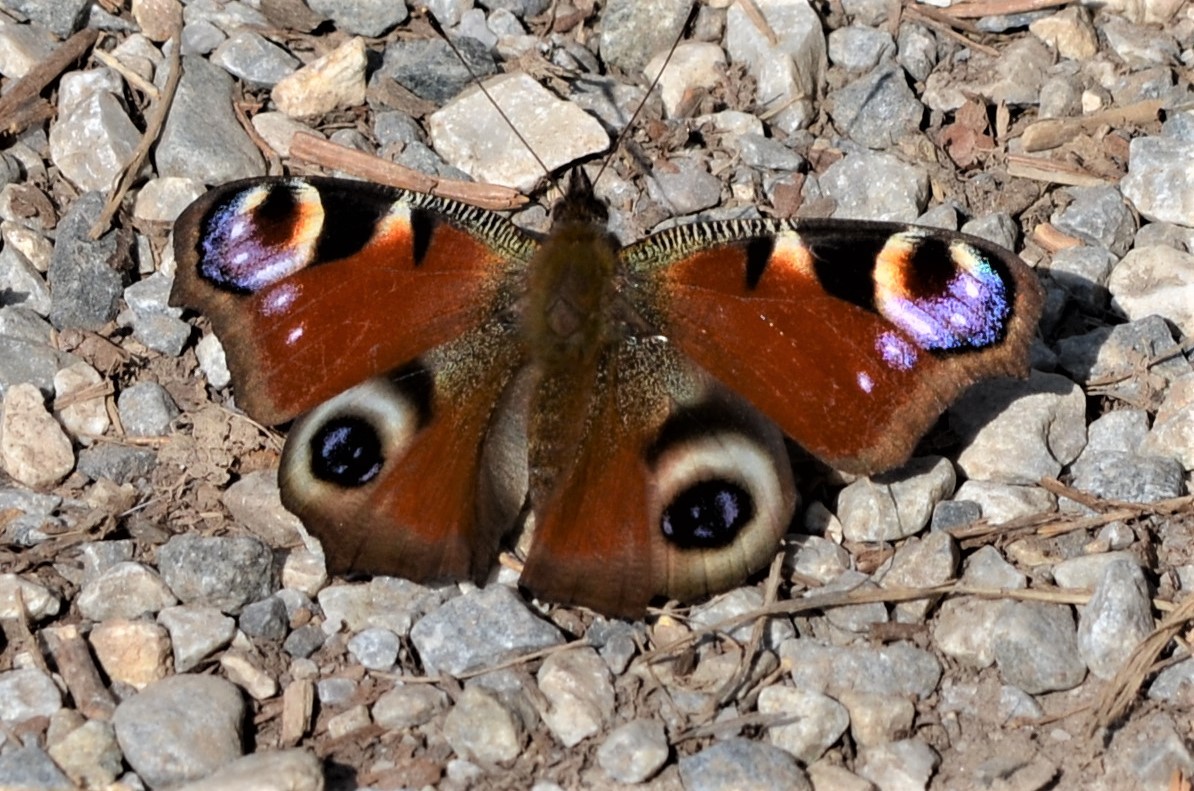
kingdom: Animalia
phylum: Arthropoda
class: Insecta
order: Lepidoptera
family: Nymphalidae
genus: Aglais
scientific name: Aglais io
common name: Peacock
